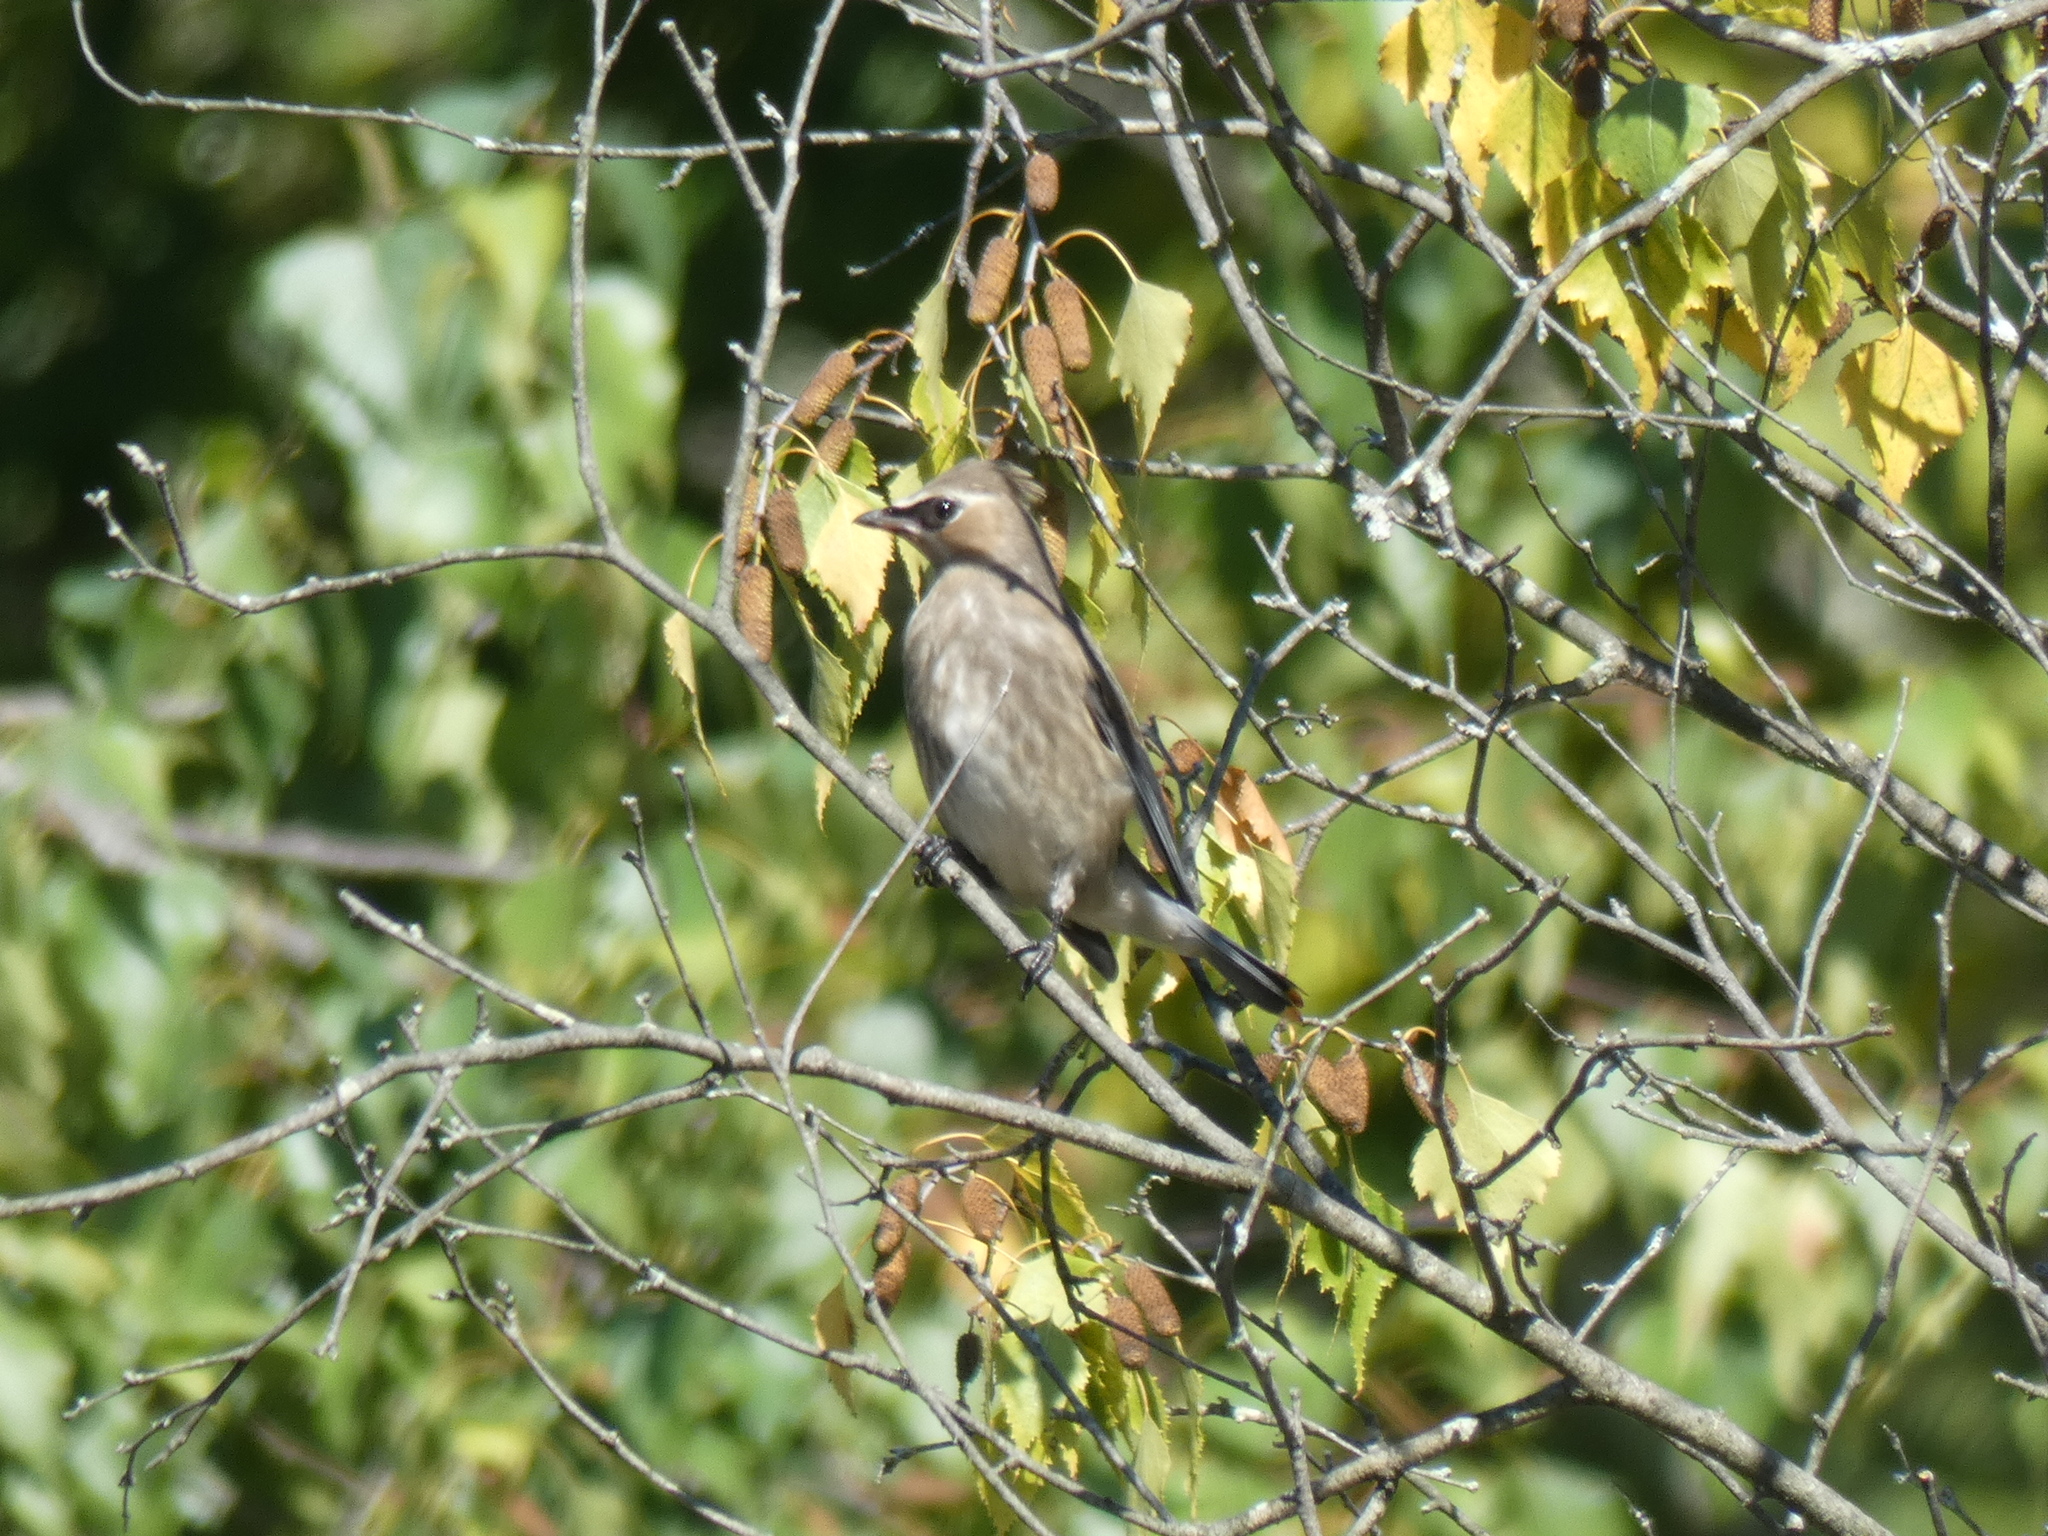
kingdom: Animalia
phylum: Chordata
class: Aves
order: Passeriformes
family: Bombycillidae
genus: Bombycilla
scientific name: Bombycilla cedrorum
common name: Cedar waxwing
